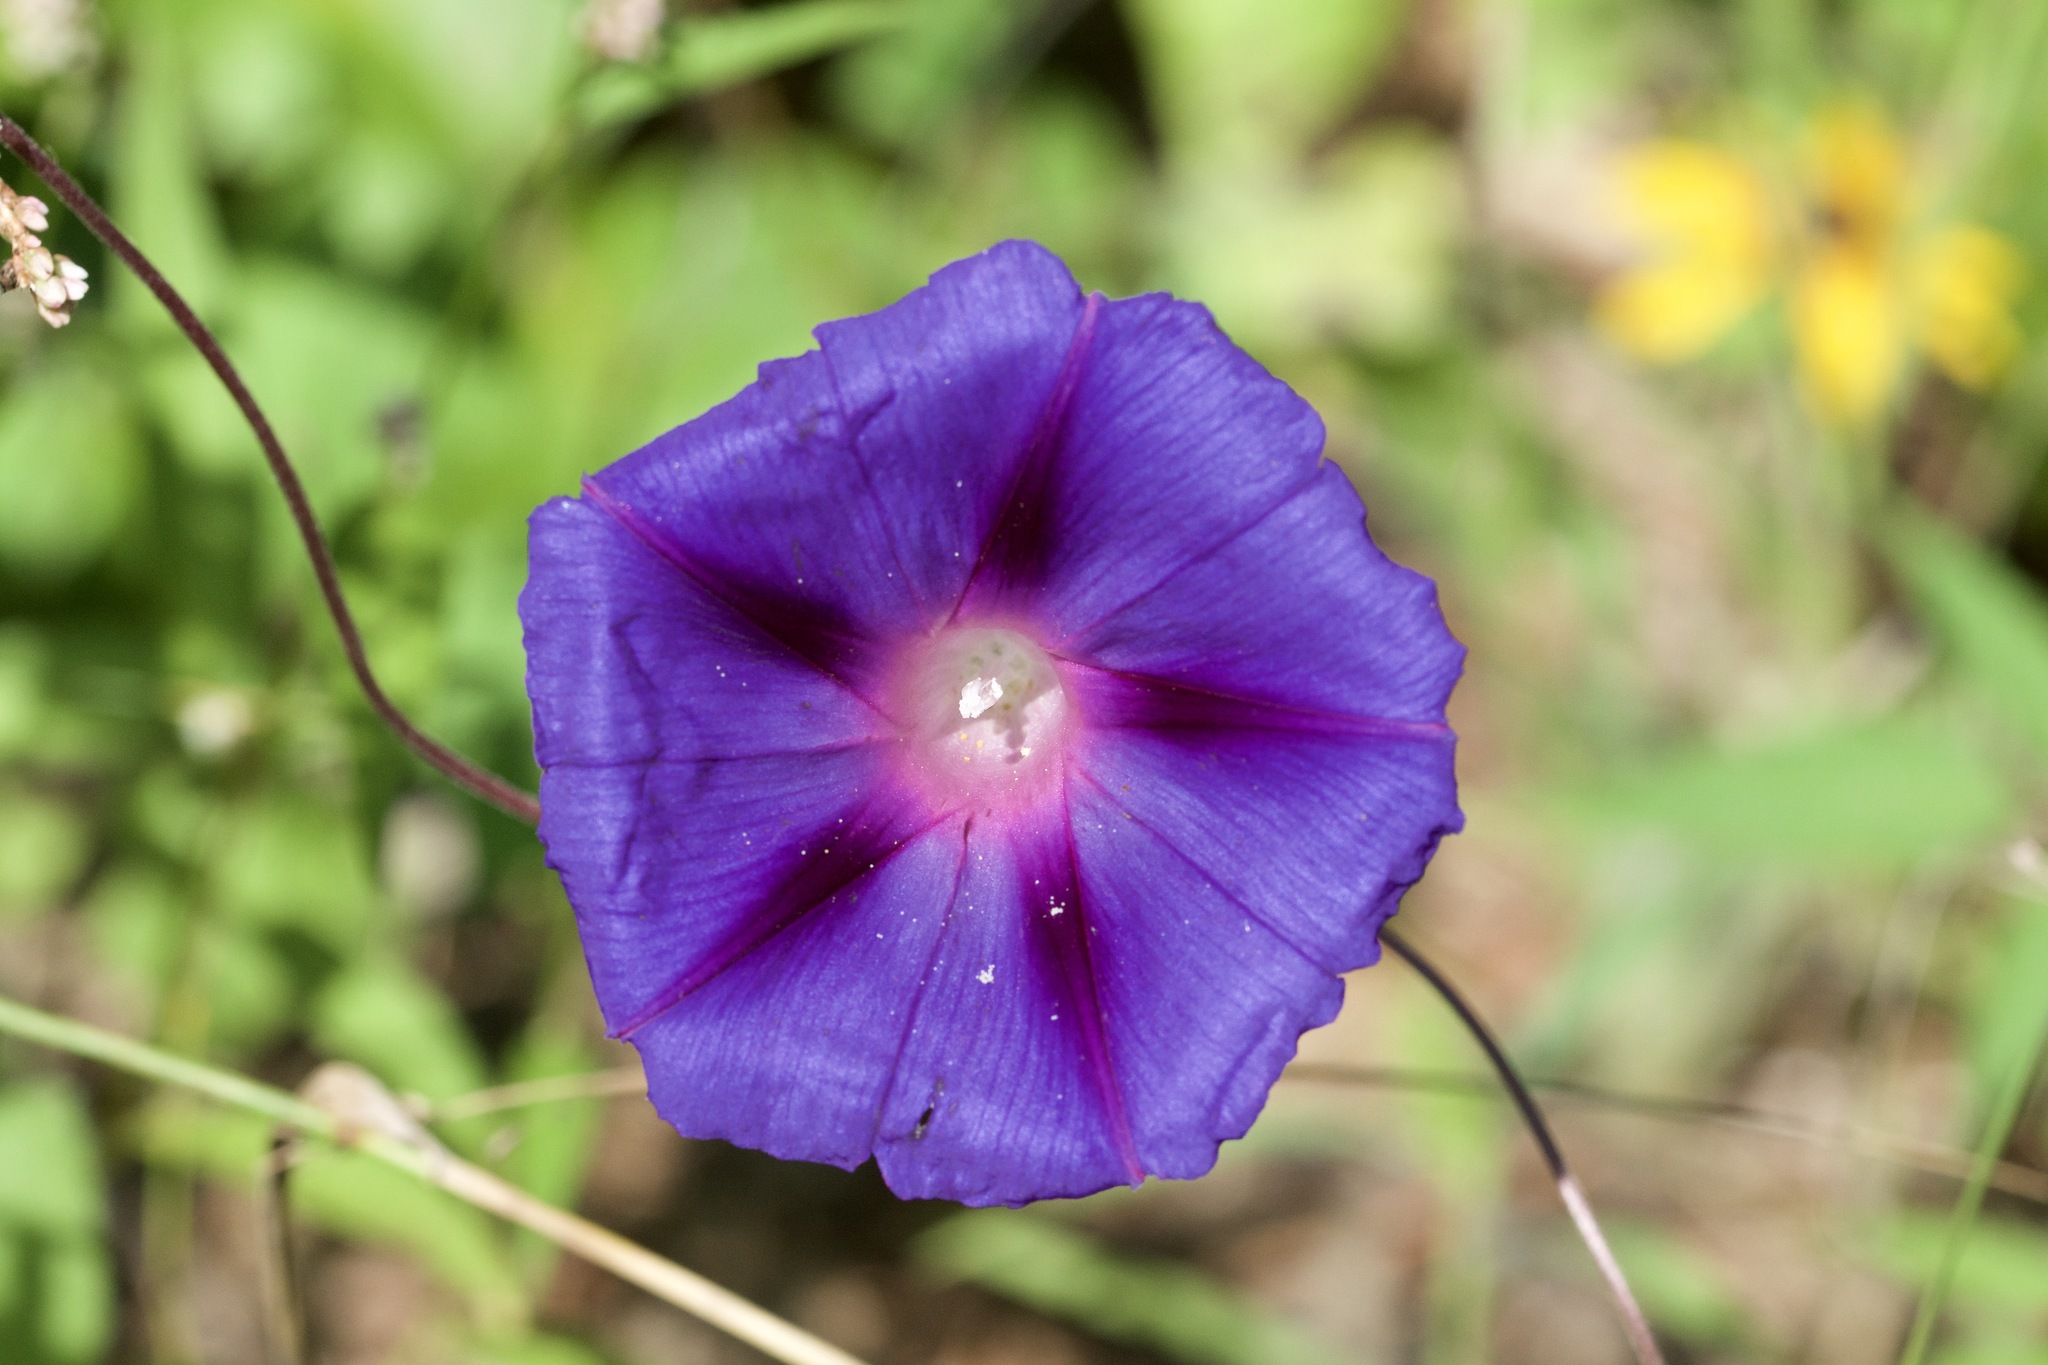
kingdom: Plantae
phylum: Tracheophyta
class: Magnoliopsida
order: Solanales
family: Convolvulaceae
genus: Ipomoea
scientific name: Ipomoea purpurea
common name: Common morning-glory
